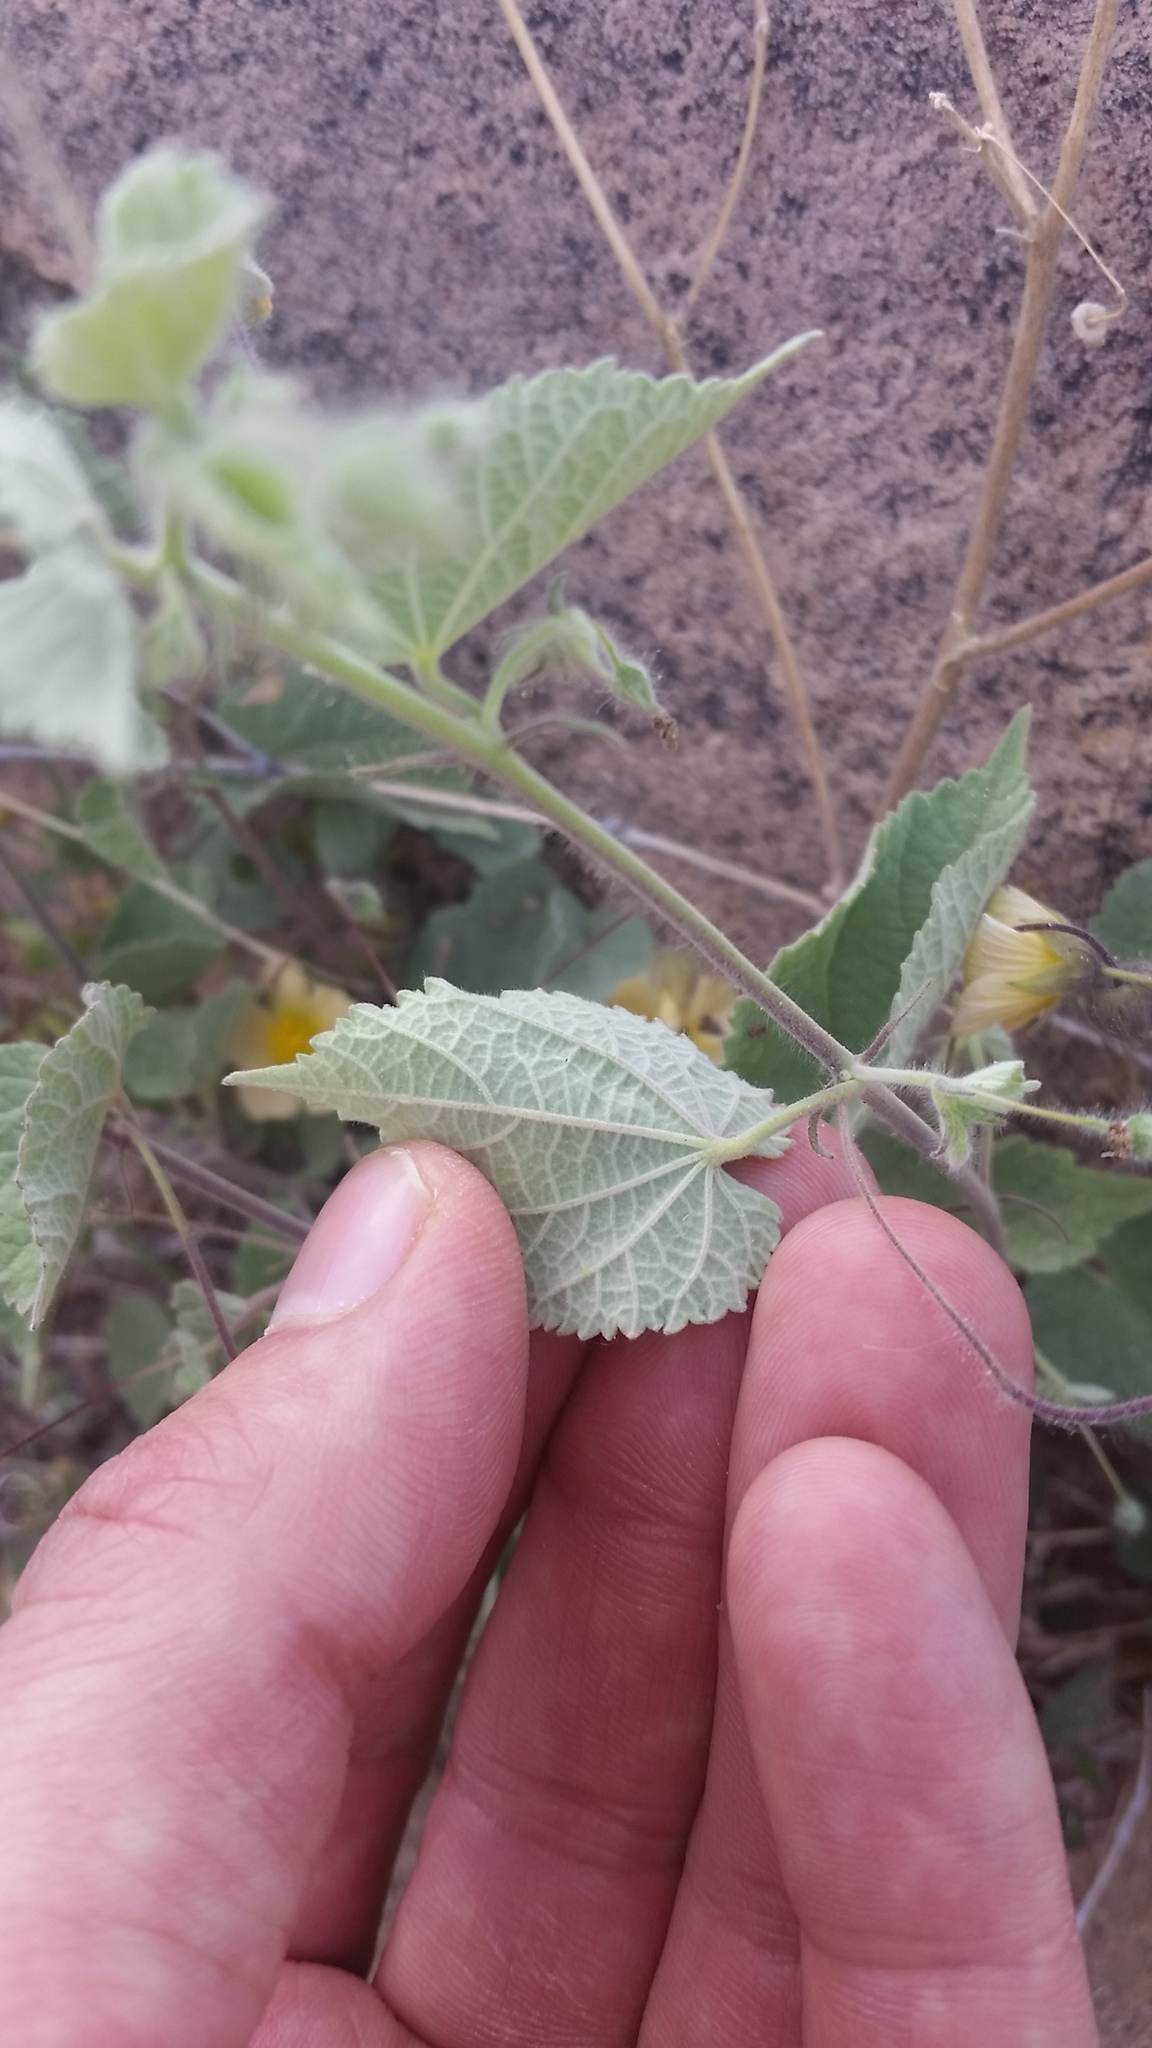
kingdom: Plantae
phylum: Tracheophyta
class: Magnoliopsida
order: Malvales
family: Malvaceae
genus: Herissantia
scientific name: Herissantia crispa
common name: Bladdermallow
